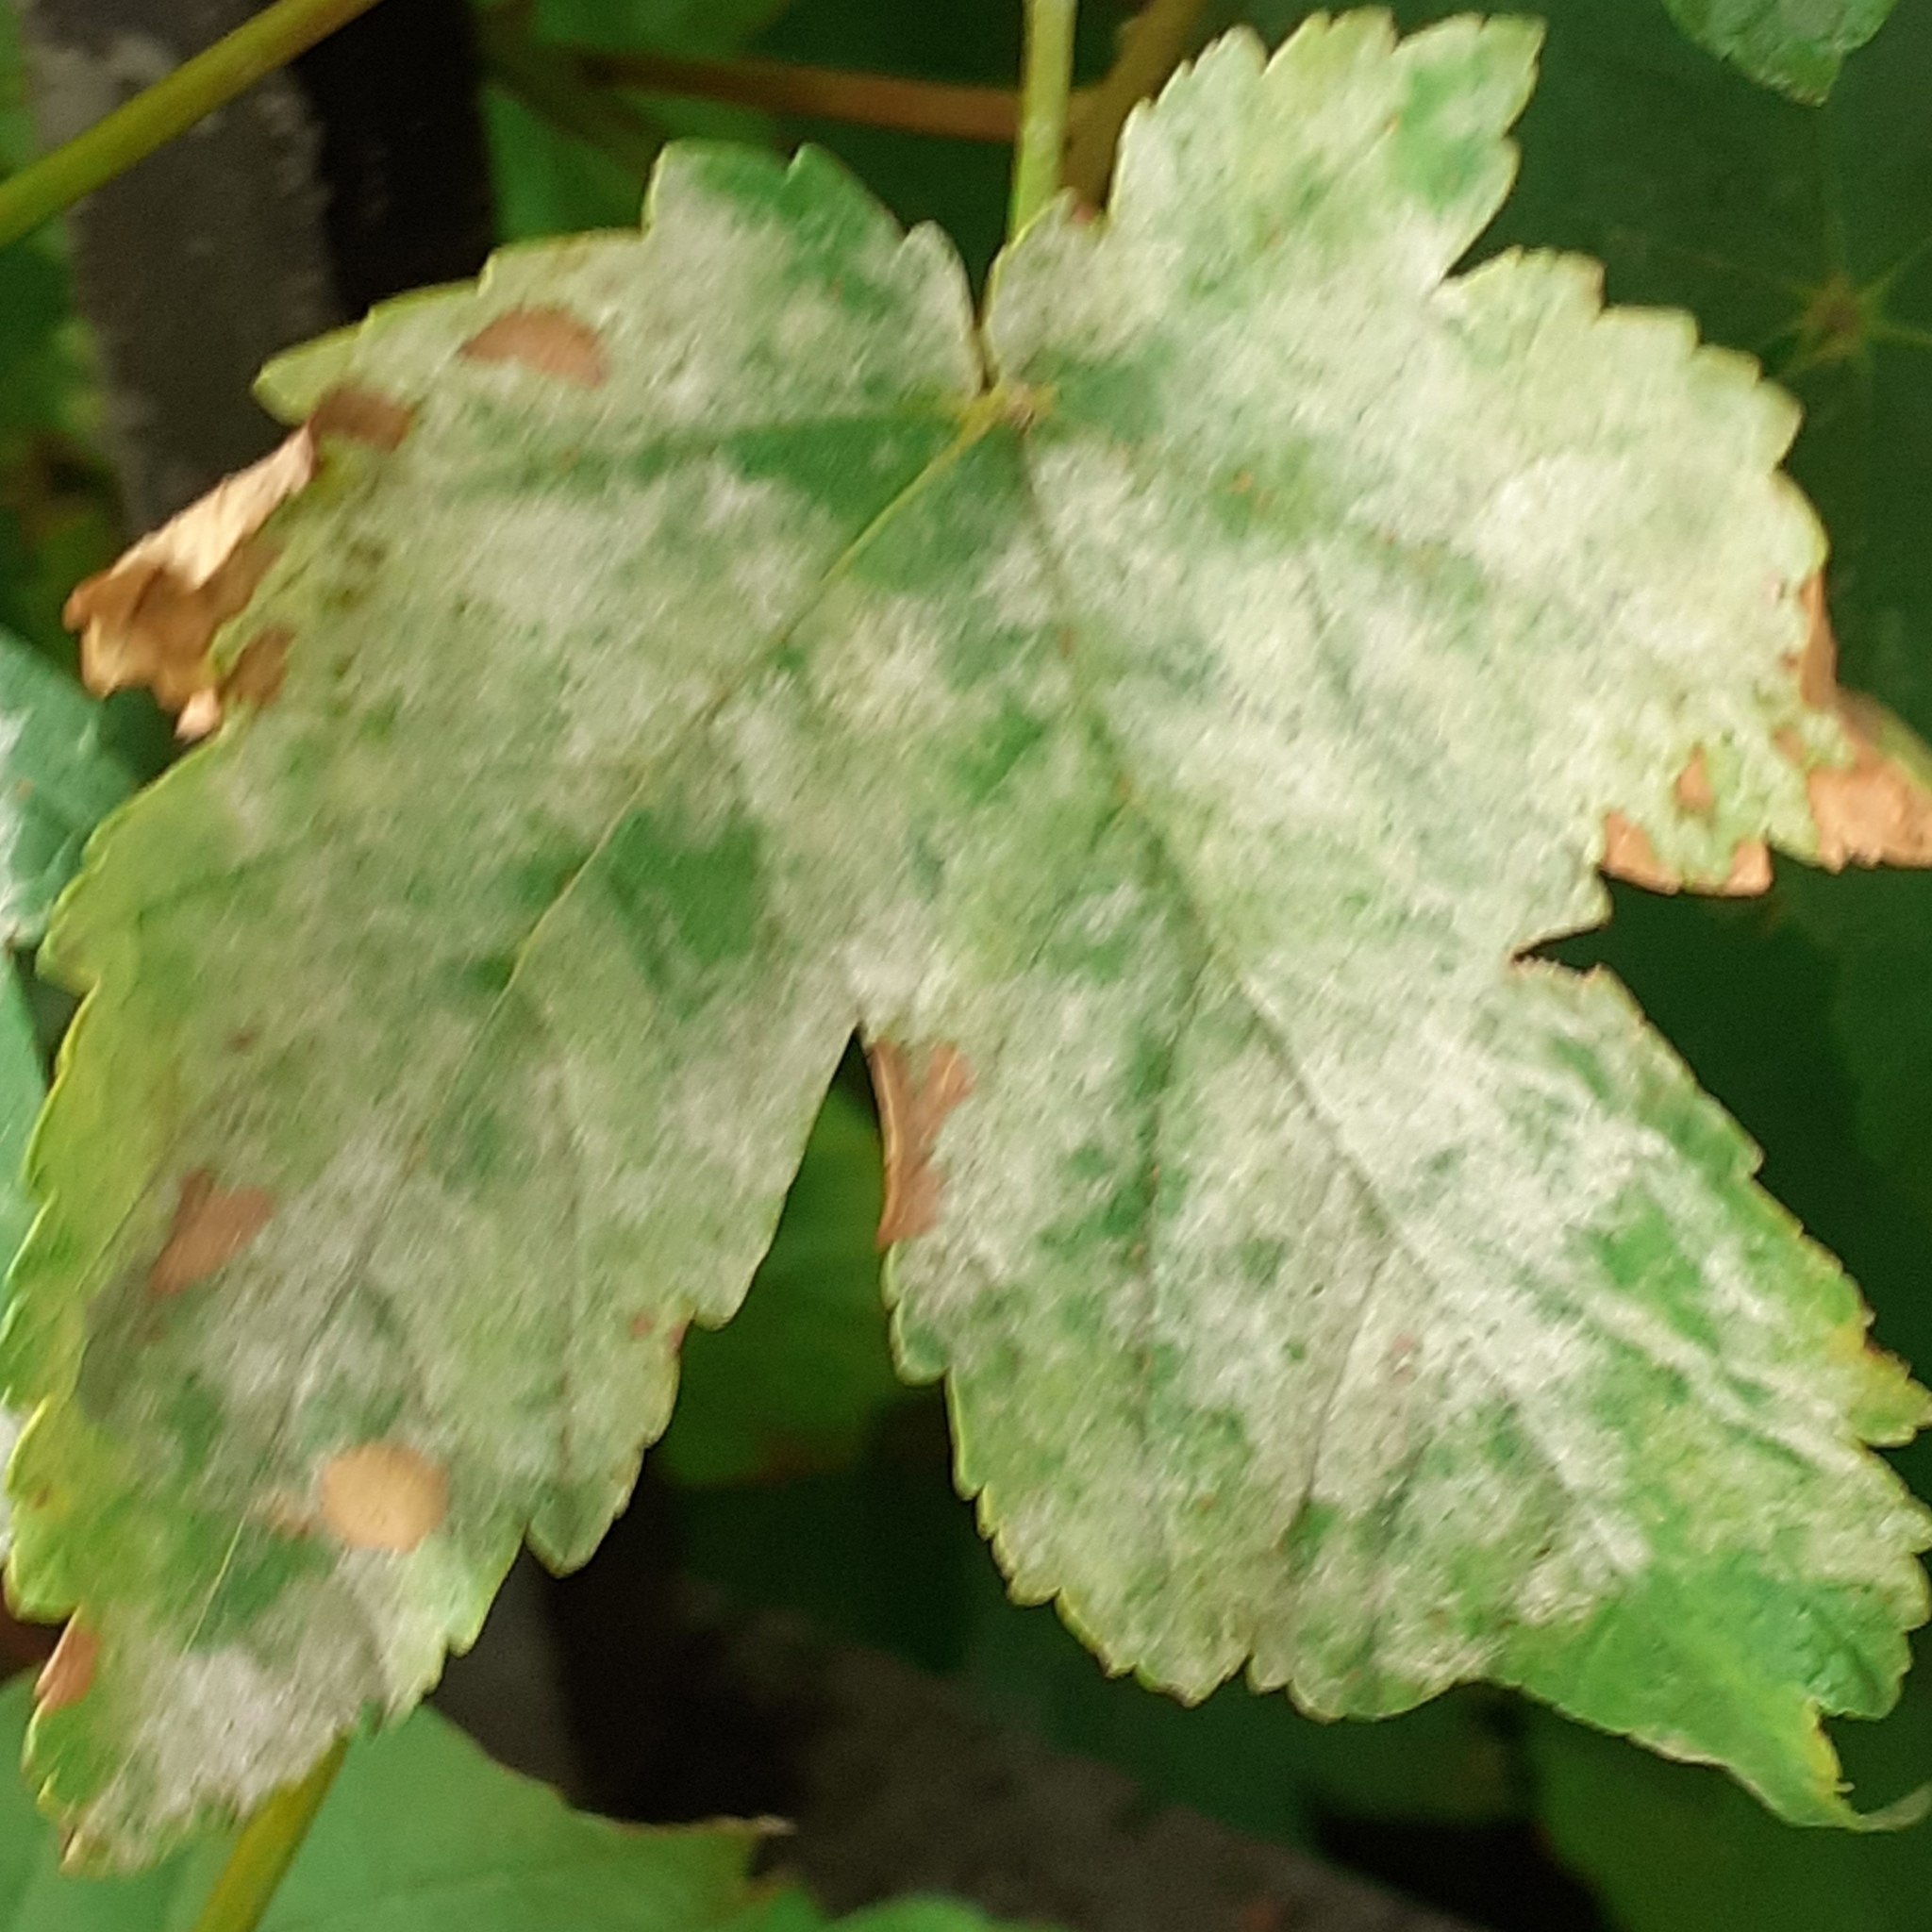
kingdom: Fungi
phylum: Ascomycota
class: Leotiomycetes
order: Helotiales
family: Erysiphaceae
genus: Sawadaea
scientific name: Sawadaea bicornis
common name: Maple mildew
